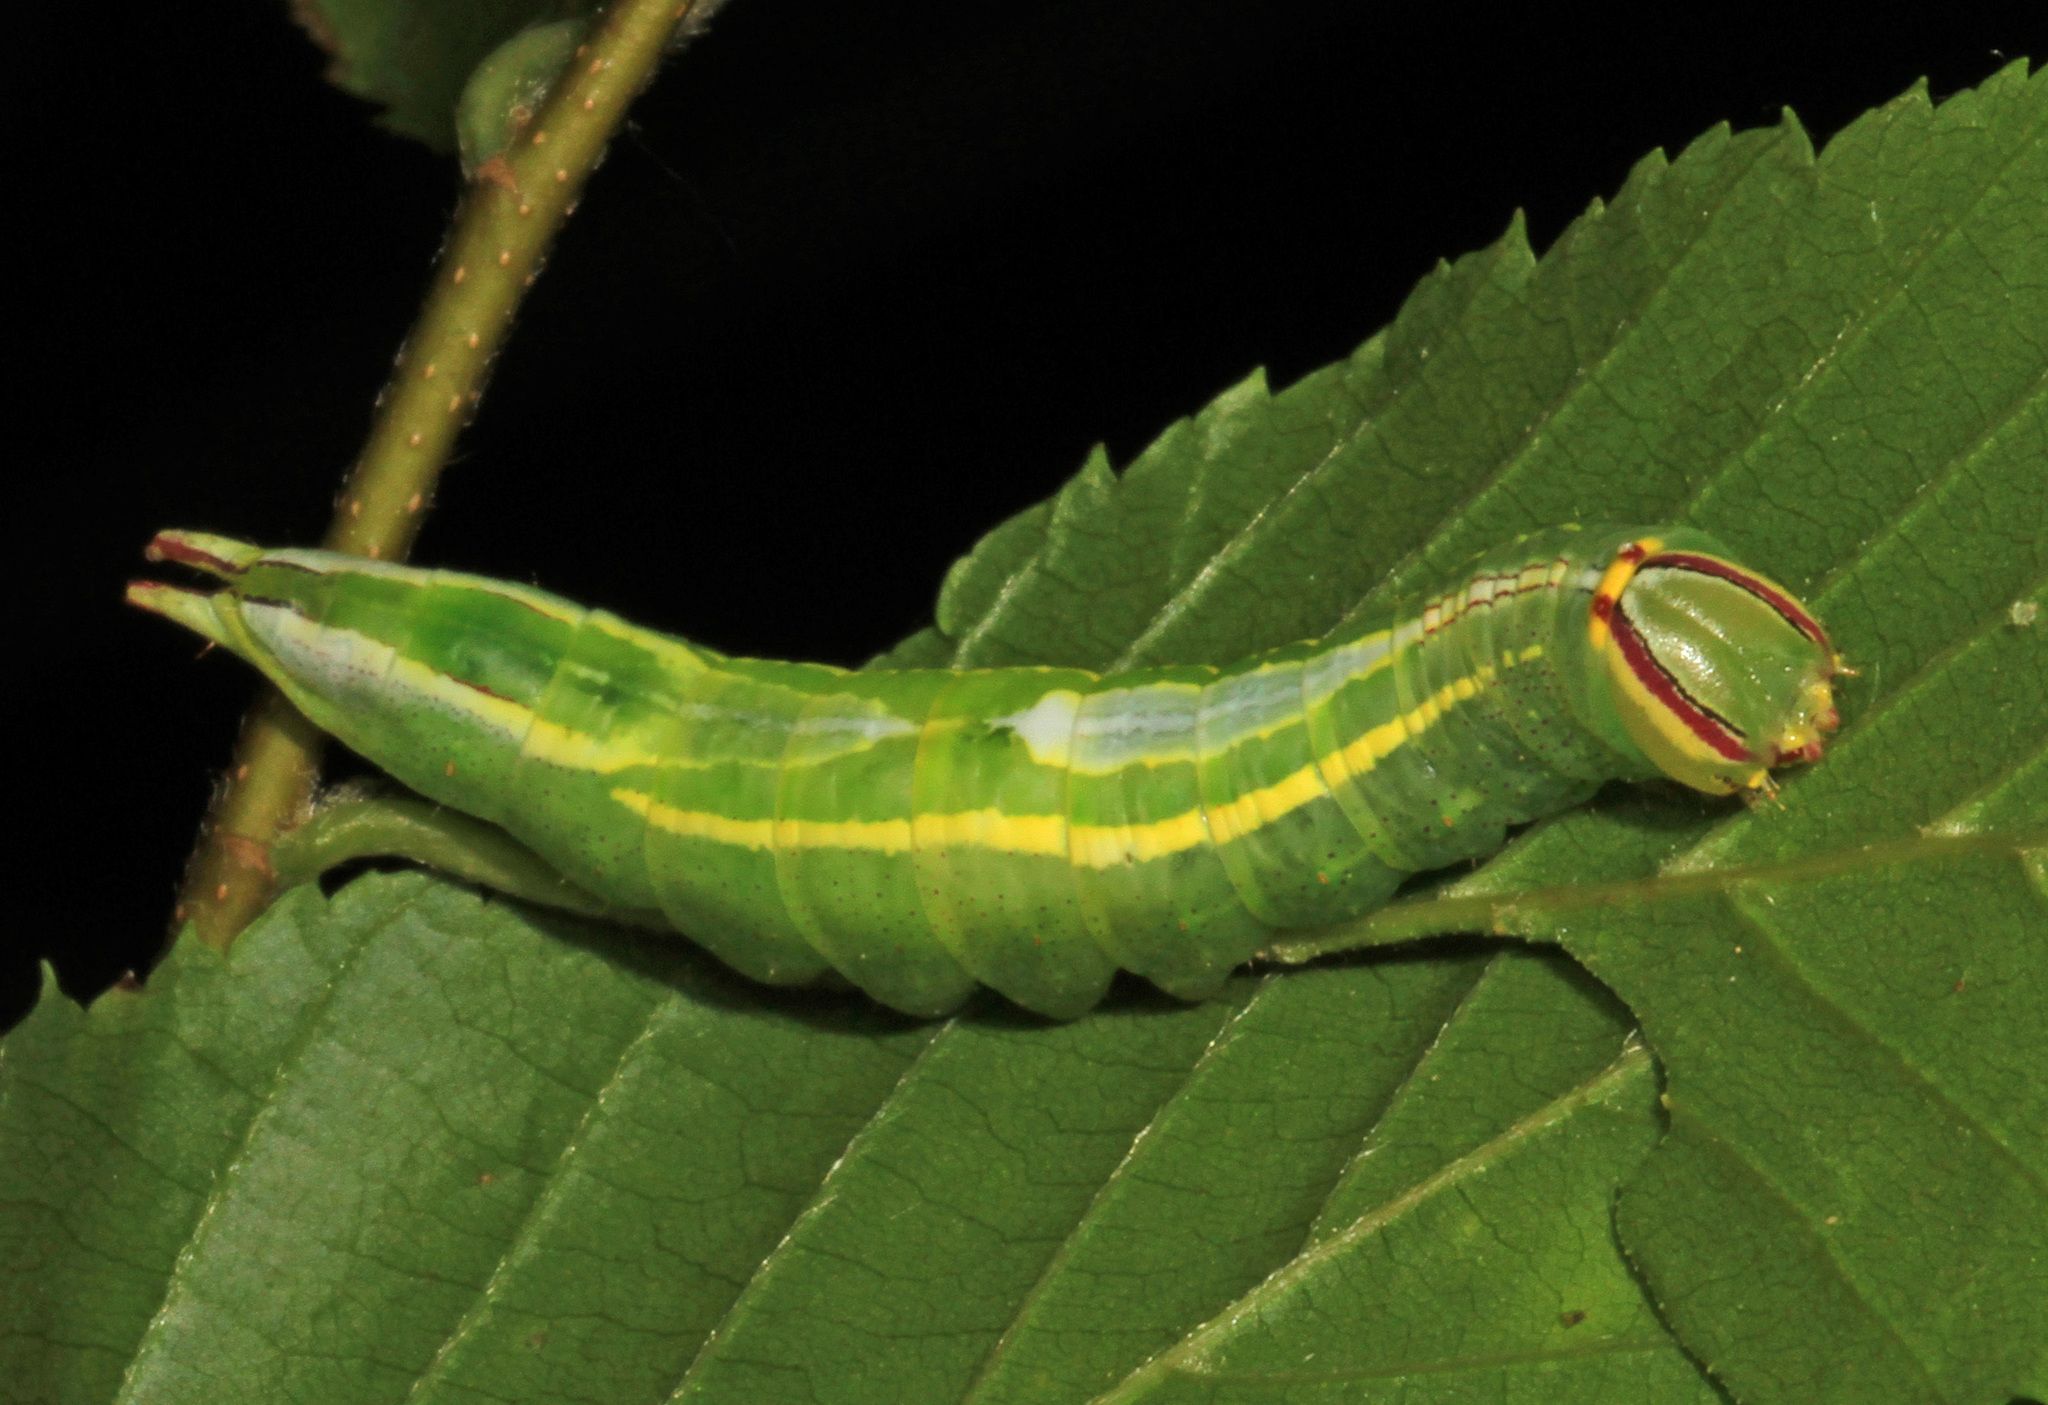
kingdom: Animalia
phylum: Arthropoda
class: Insecta
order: Lepidoptera
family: Notodontidae
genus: Disphragis
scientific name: Disphragis Cecrita guttivitta
